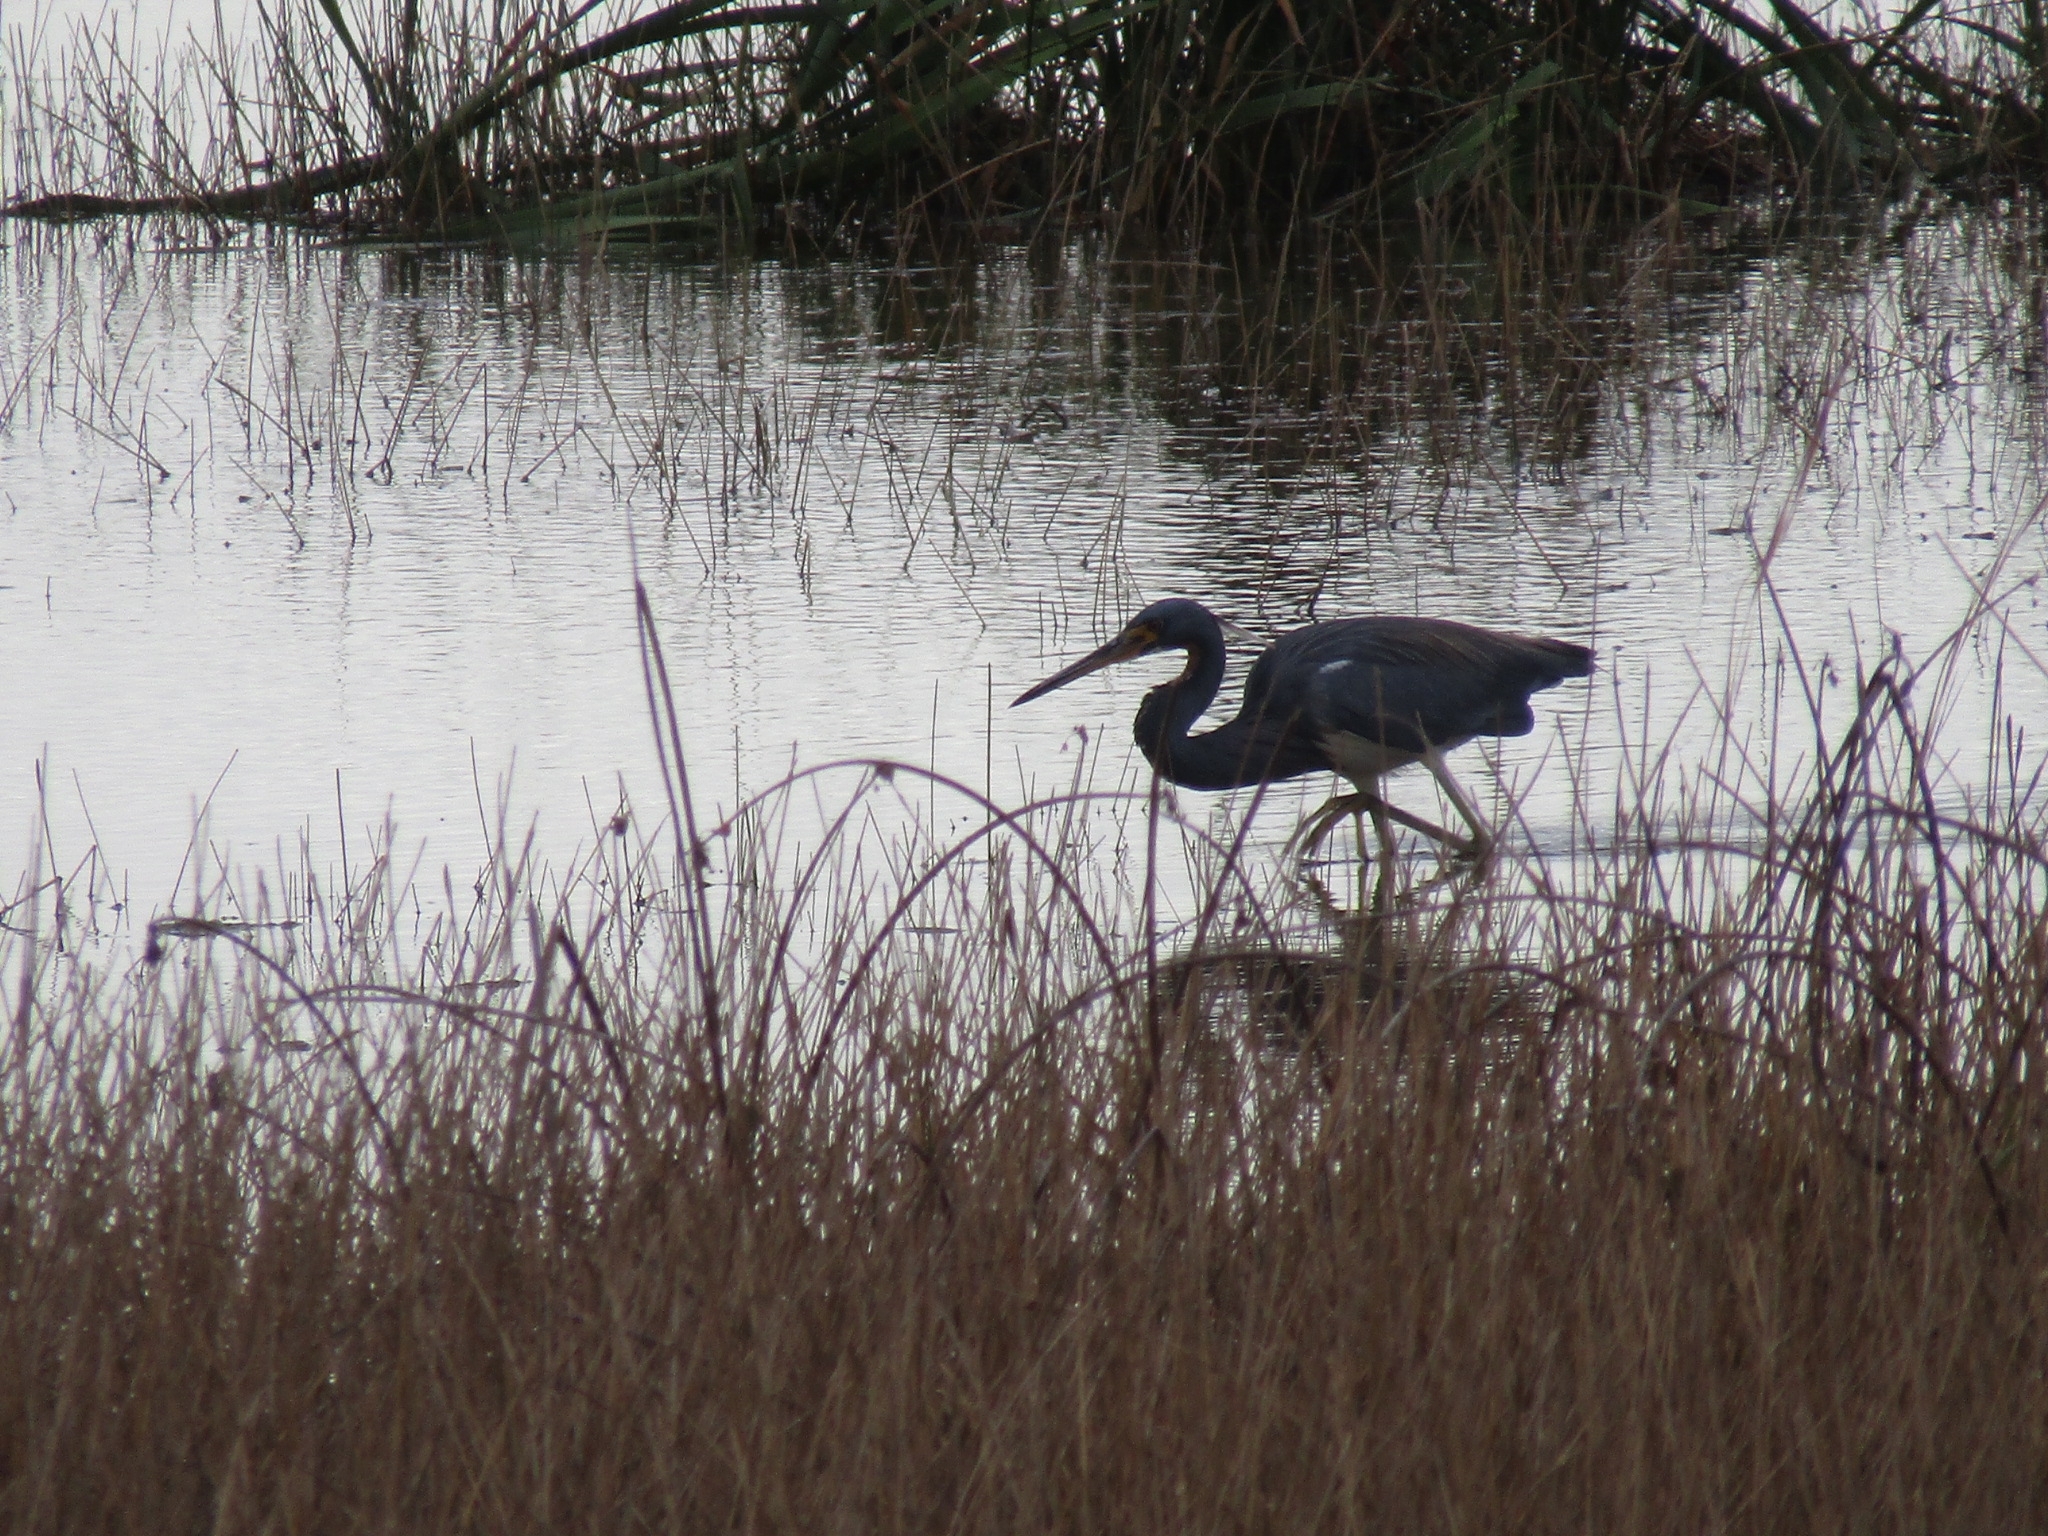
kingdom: Animalia
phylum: Chordata
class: Aves
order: Pelecaniformes
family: Ardeidae
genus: Egretta
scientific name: Egretta tricolor
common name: Tricolored heron
